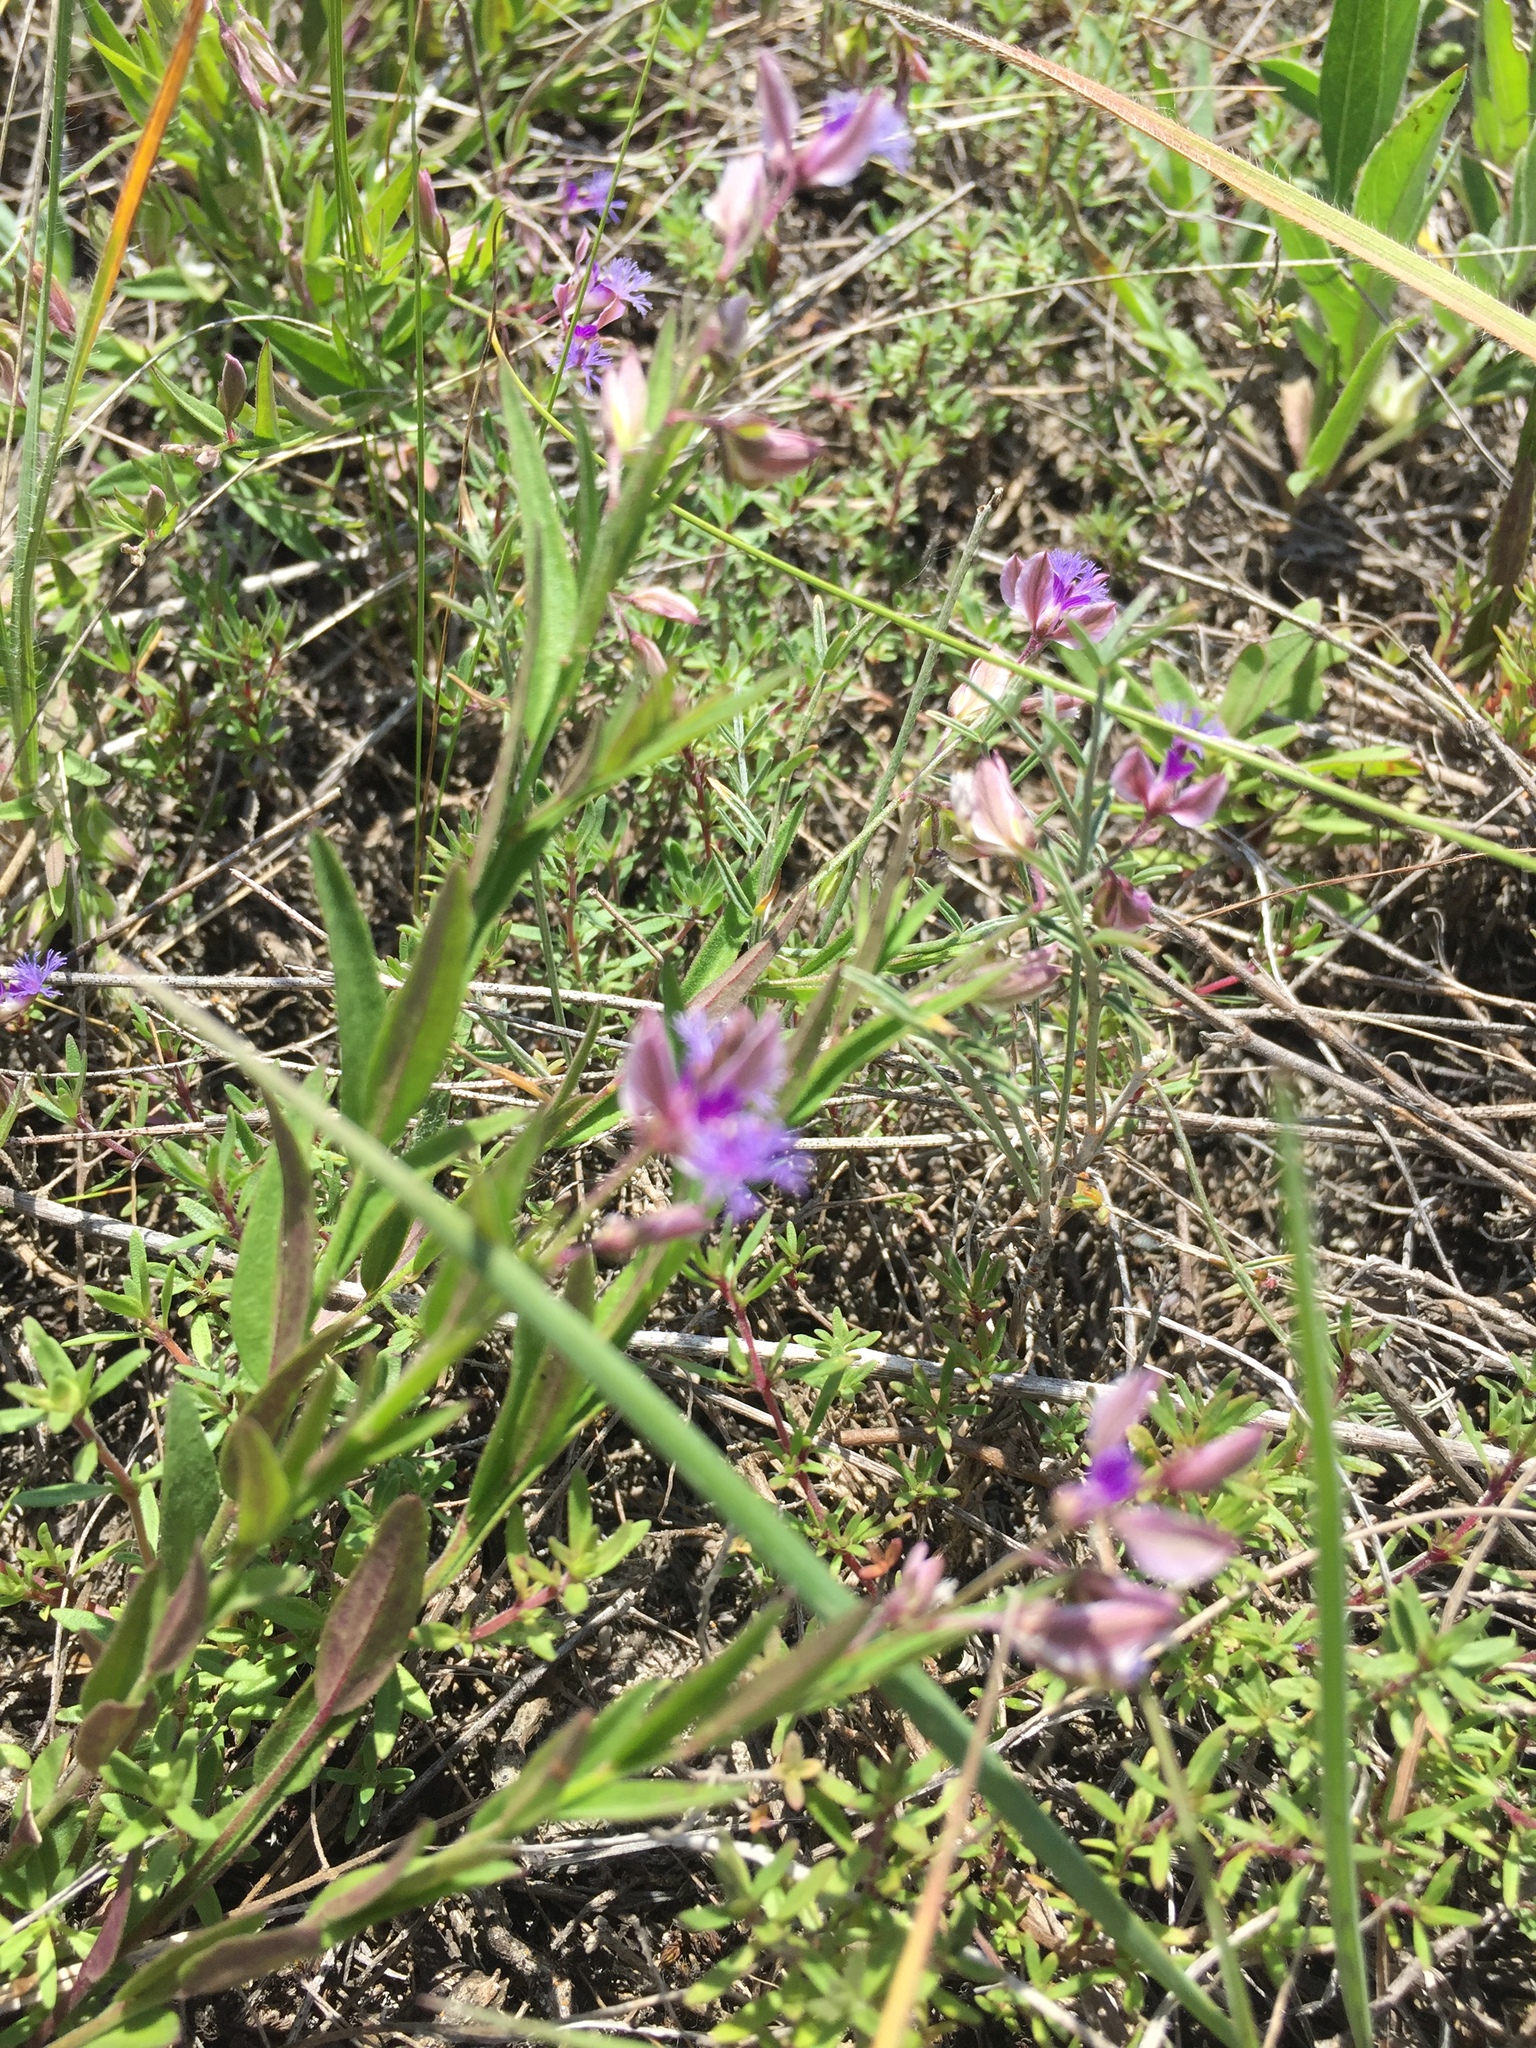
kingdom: Plantae
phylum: Tracheophyta
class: Magnoliopsida
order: Fabales
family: Polygalaceae
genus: Polygala
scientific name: Polygala sibirica
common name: Siberian polygala
